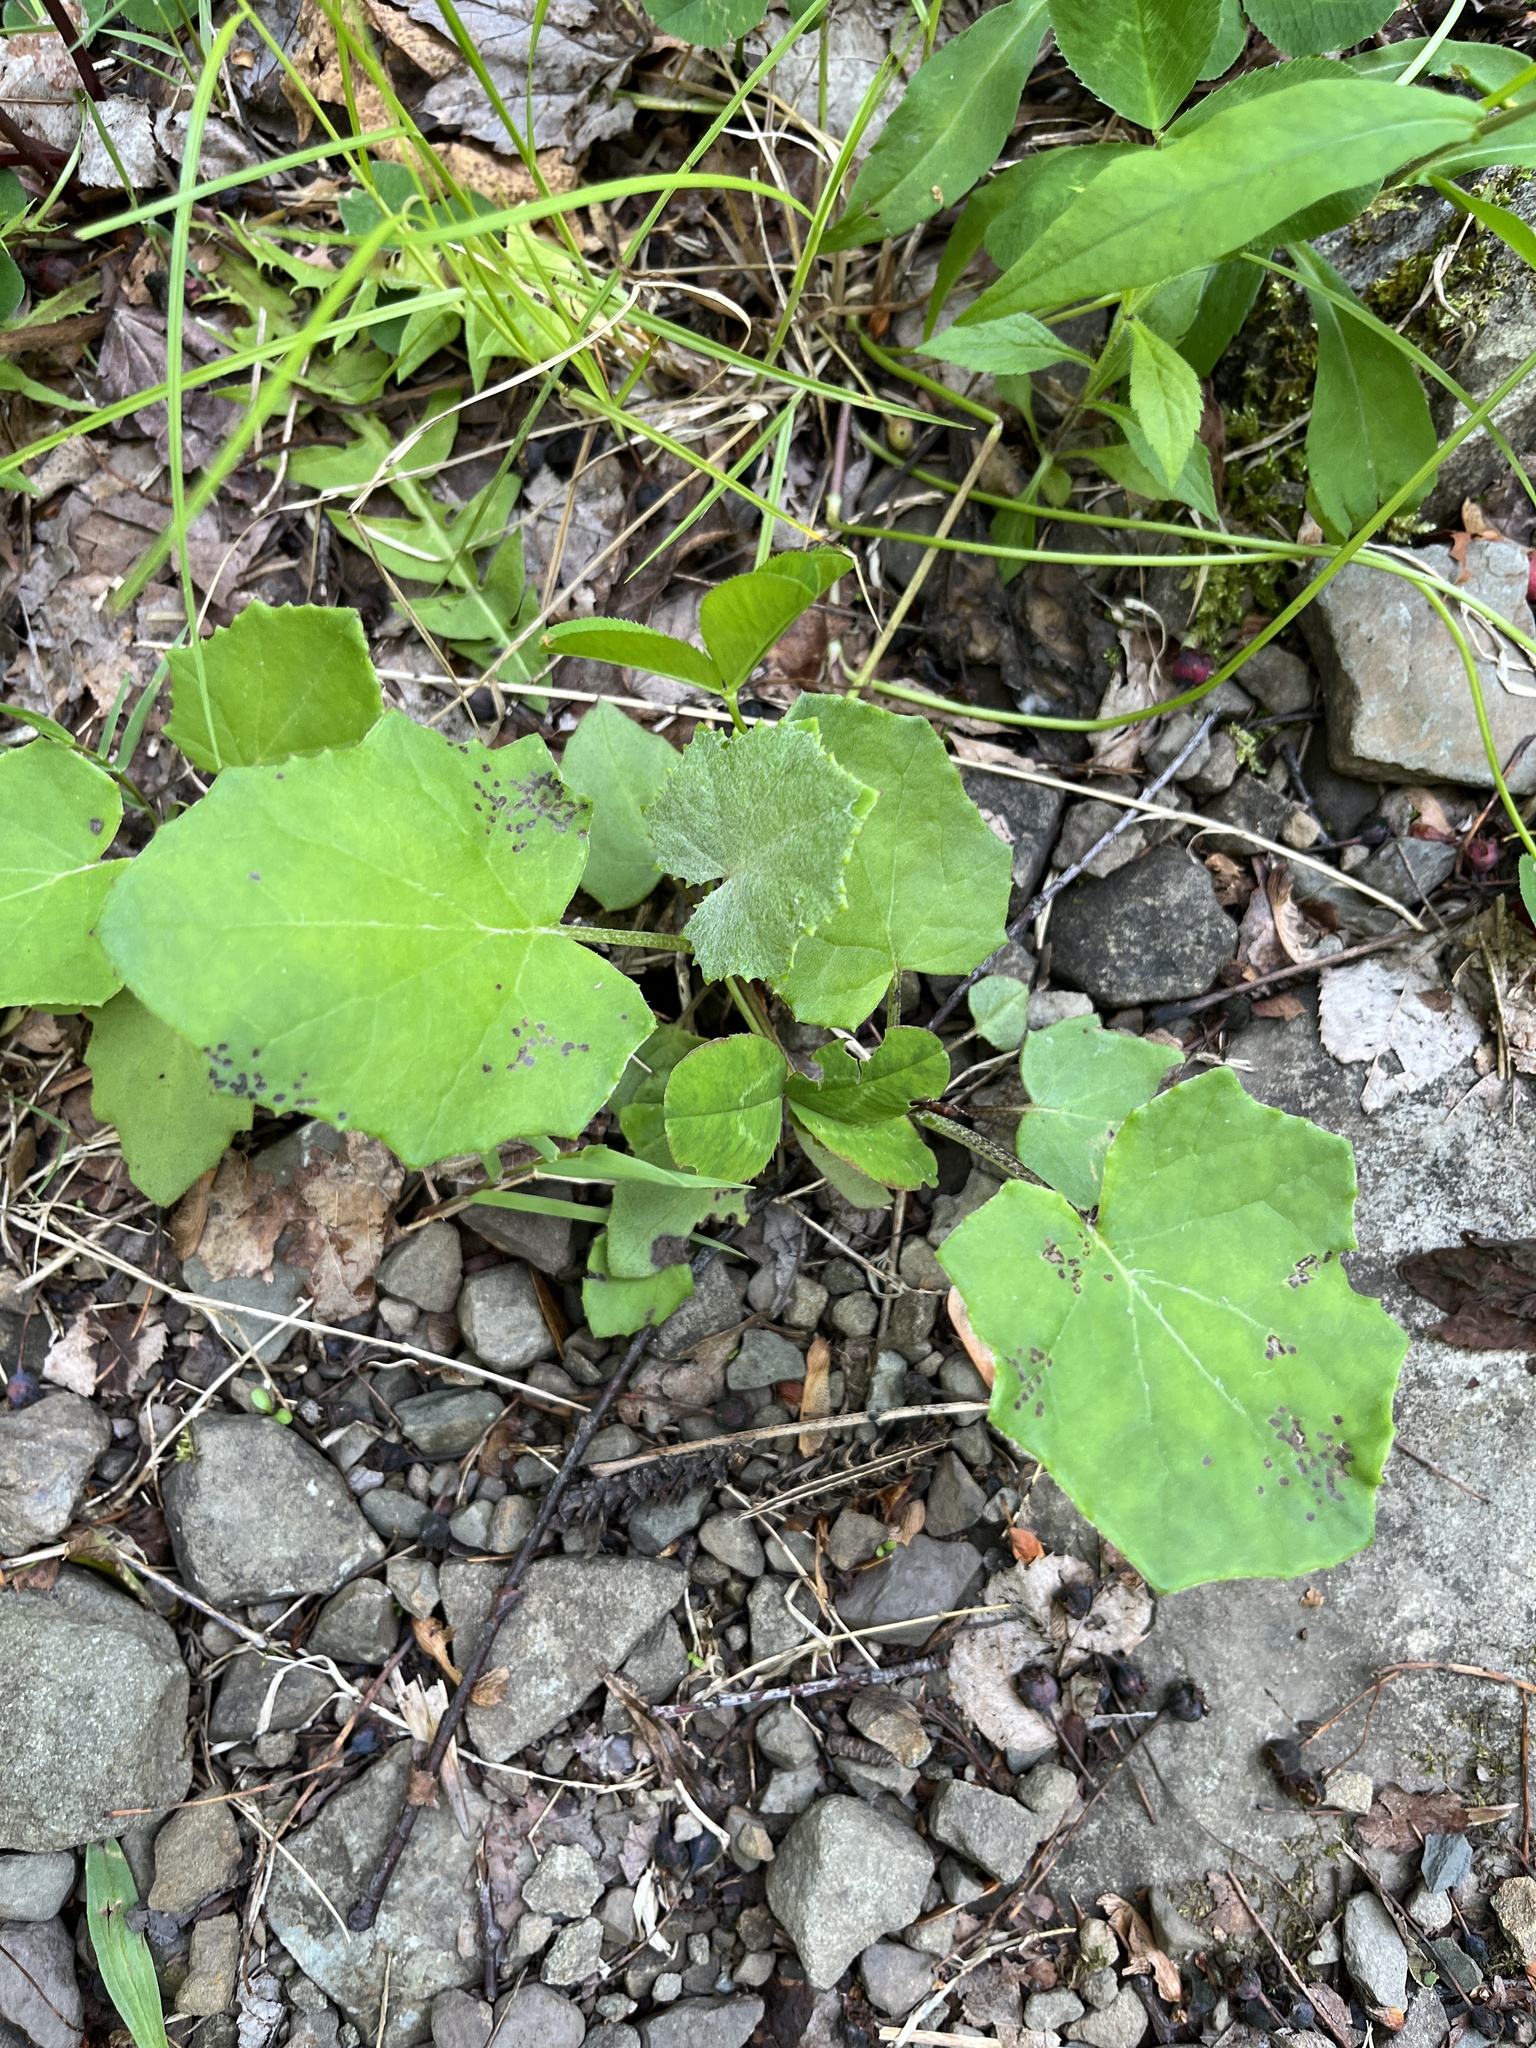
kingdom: Plantae
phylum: Tracheophyta
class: Magnoliopsida
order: Asterales
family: Asteraceae
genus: Tussilago
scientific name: Tussilago farfara
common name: Coltsfoot
